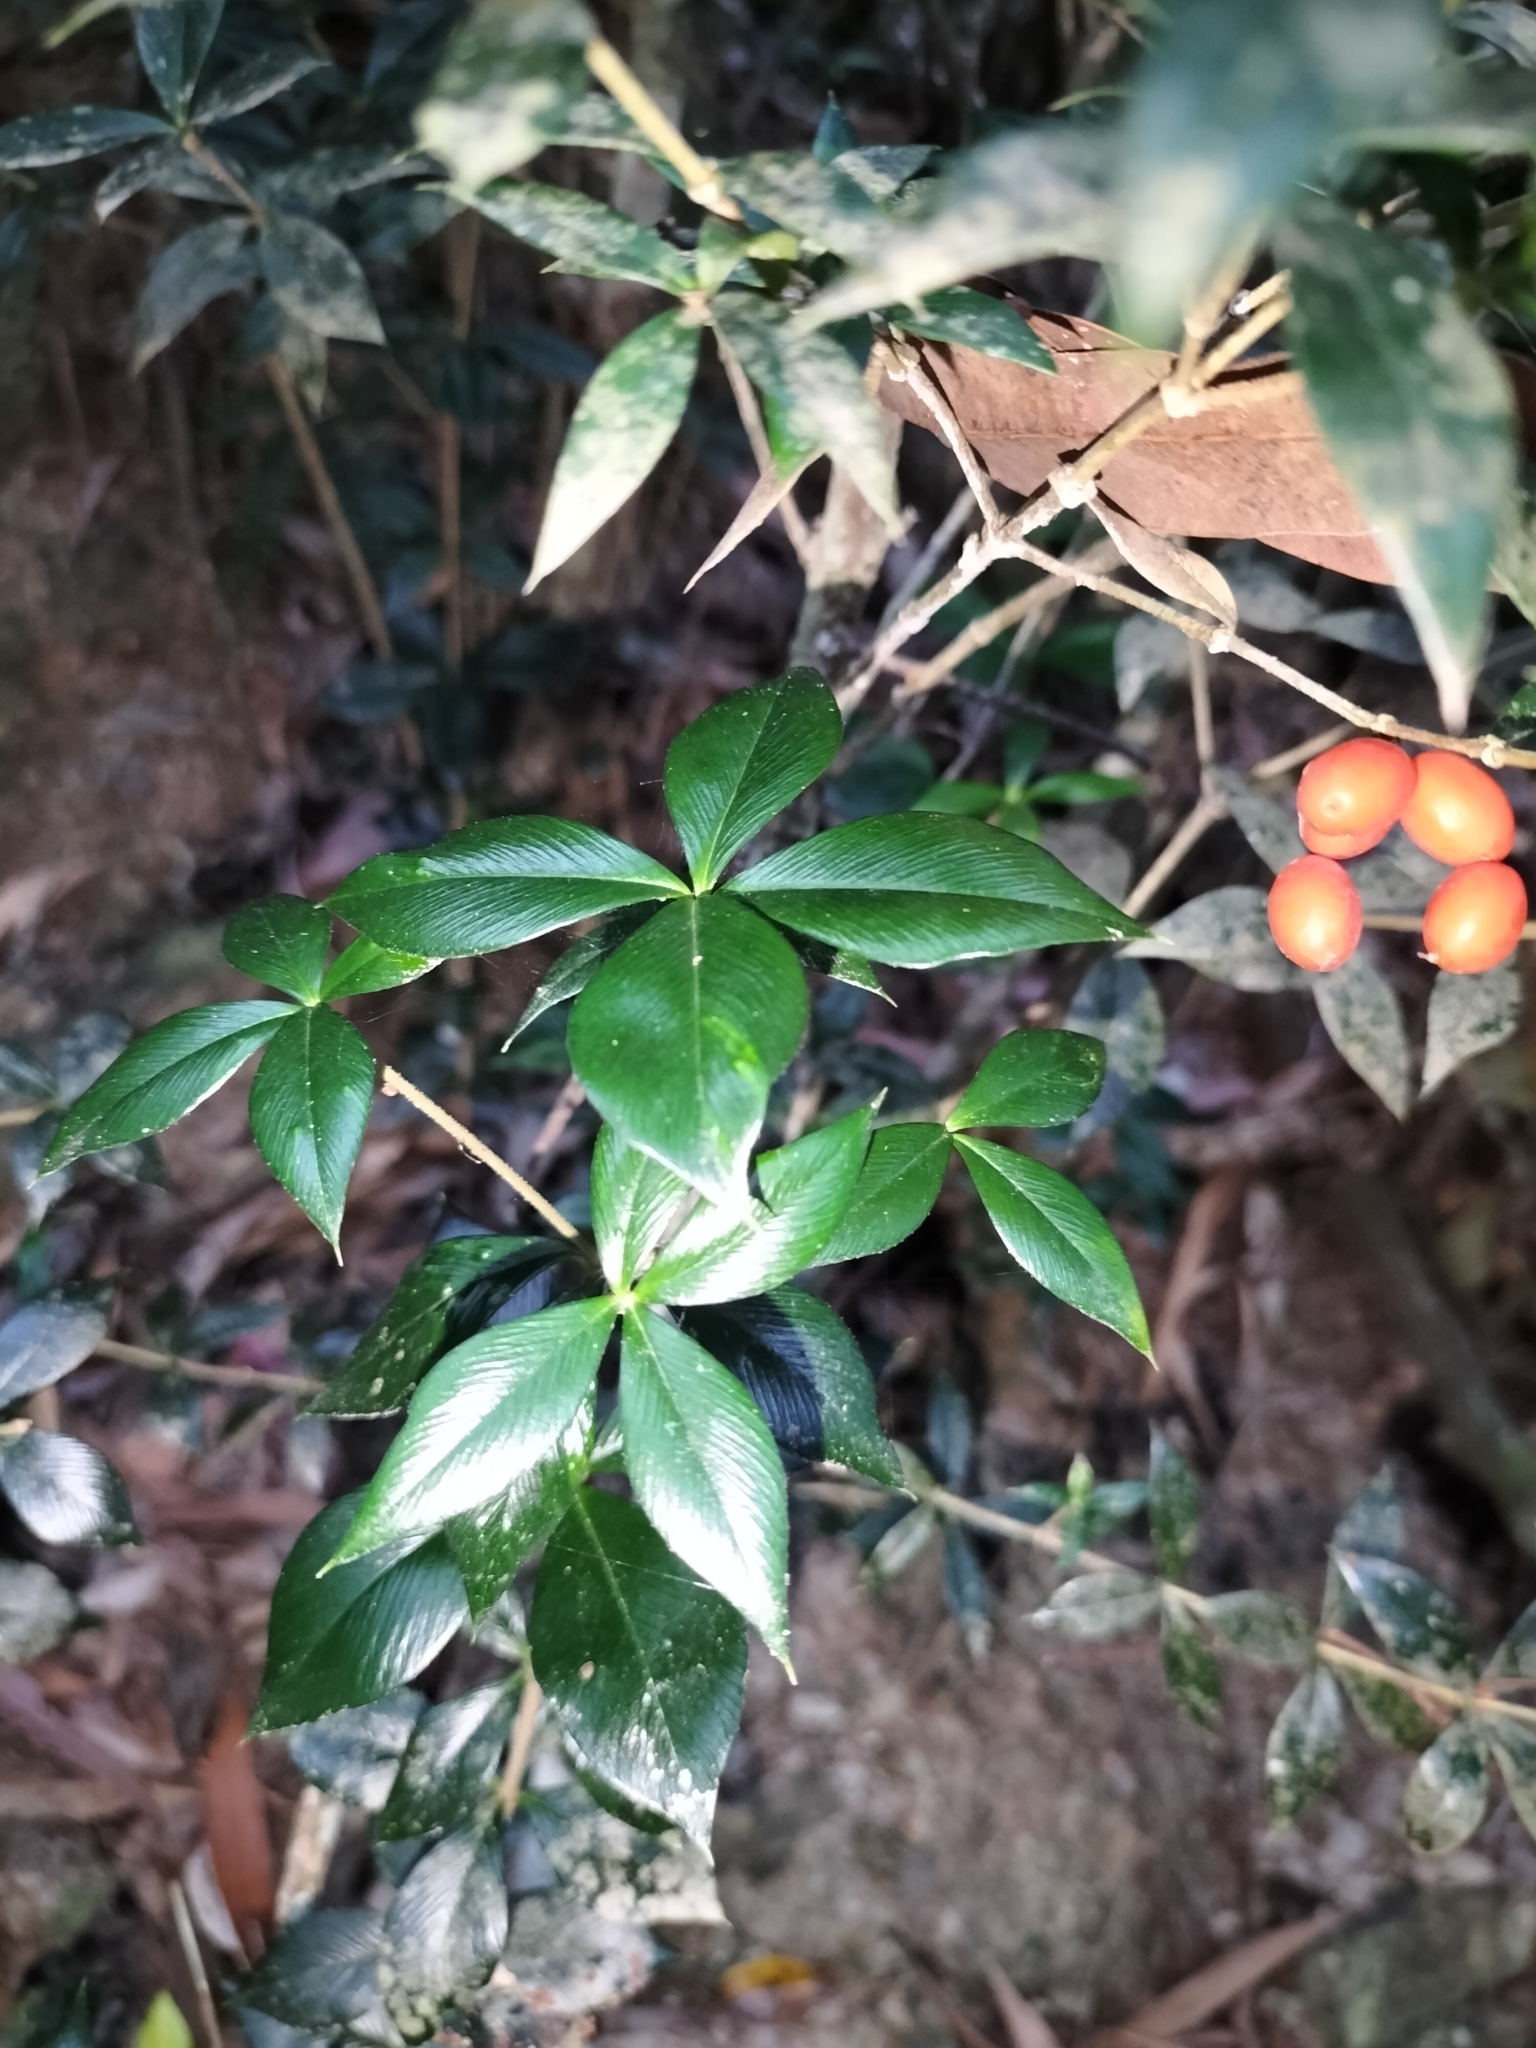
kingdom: Plantae
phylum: Tracheophyta
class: Magnoliopsida
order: Gentianales
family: Apocynaceae
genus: Alyxia
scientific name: Alyxia ruscifolia
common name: Chainfruit
